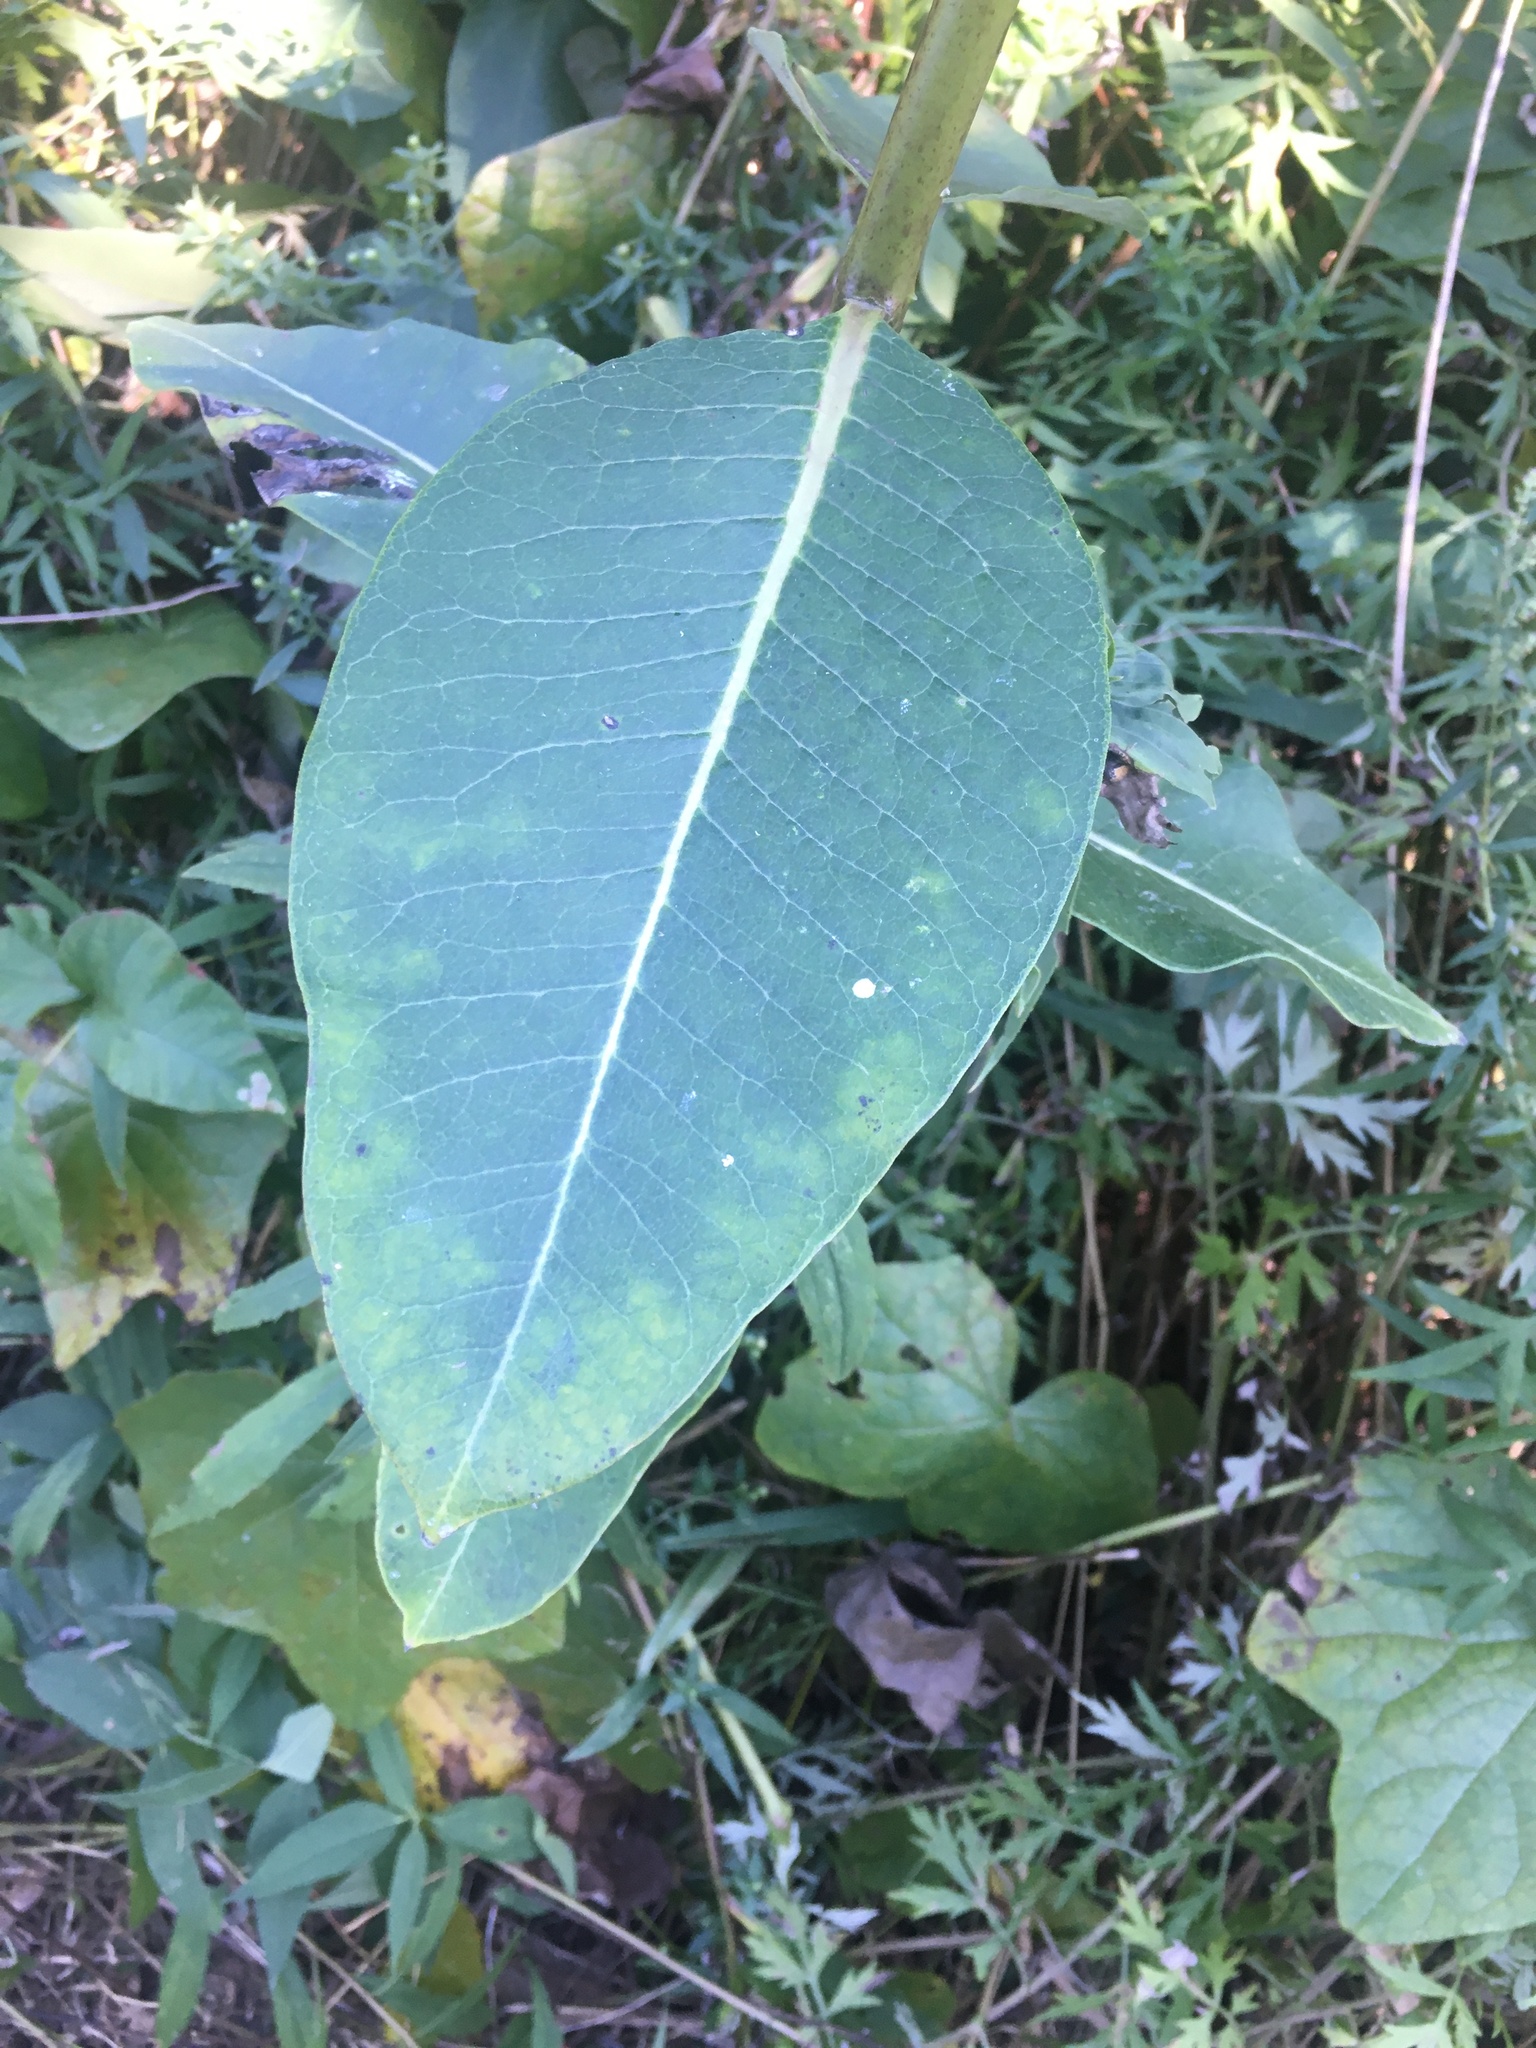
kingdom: Plantae
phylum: Tracheophyta
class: Magnoliopsida
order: Gentianales
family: Apocynaceae
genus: Asclepias
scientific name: Asclepias syriaca
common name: Common milkweed
